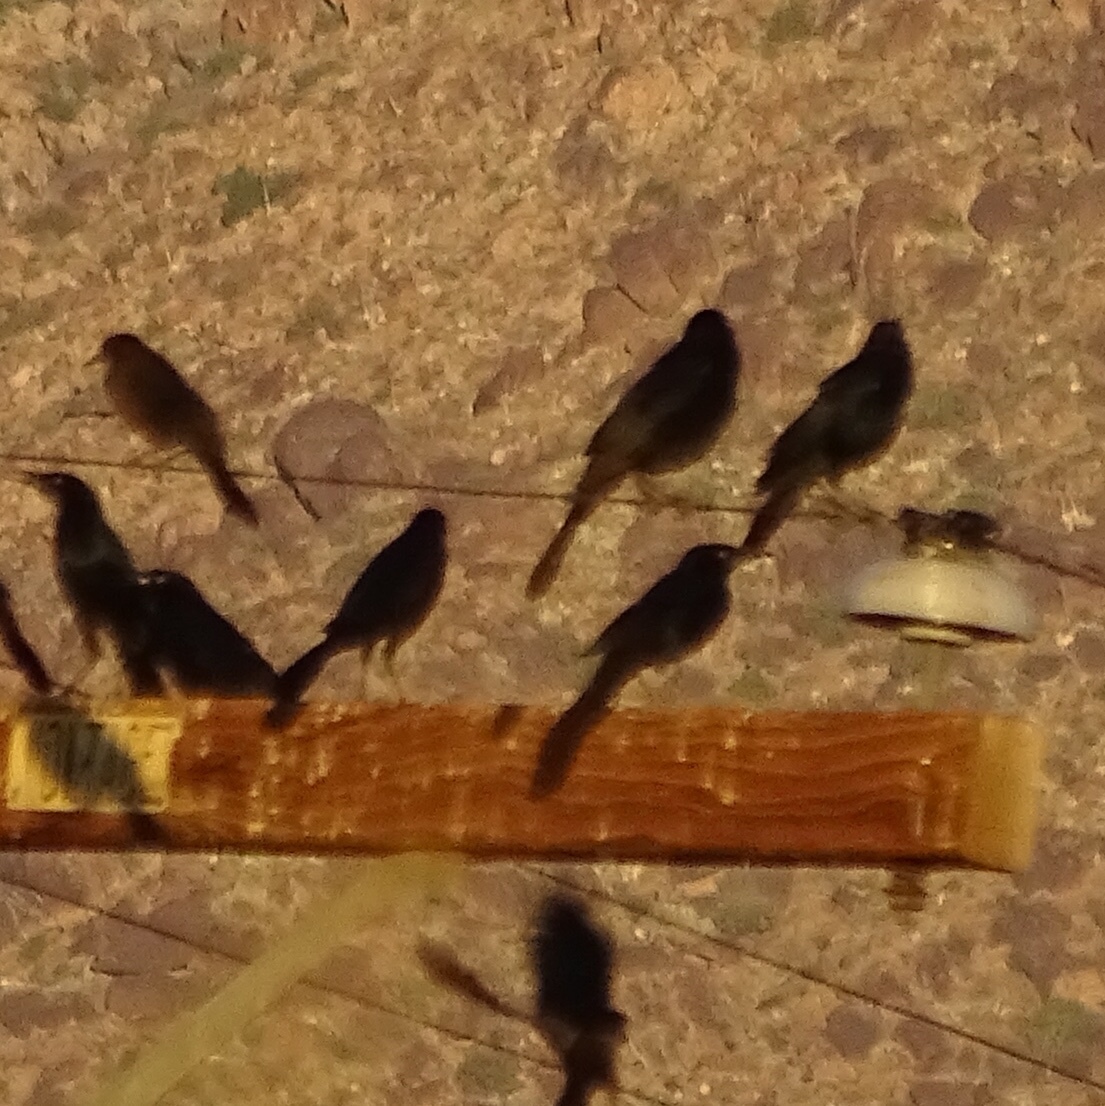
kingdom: Animalia
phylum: Chordata
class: Aves
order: Passeriformes
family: Icteridae
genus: Quiscalus
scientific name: Quiscalus mexicanus
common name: Great-tailed grackle
